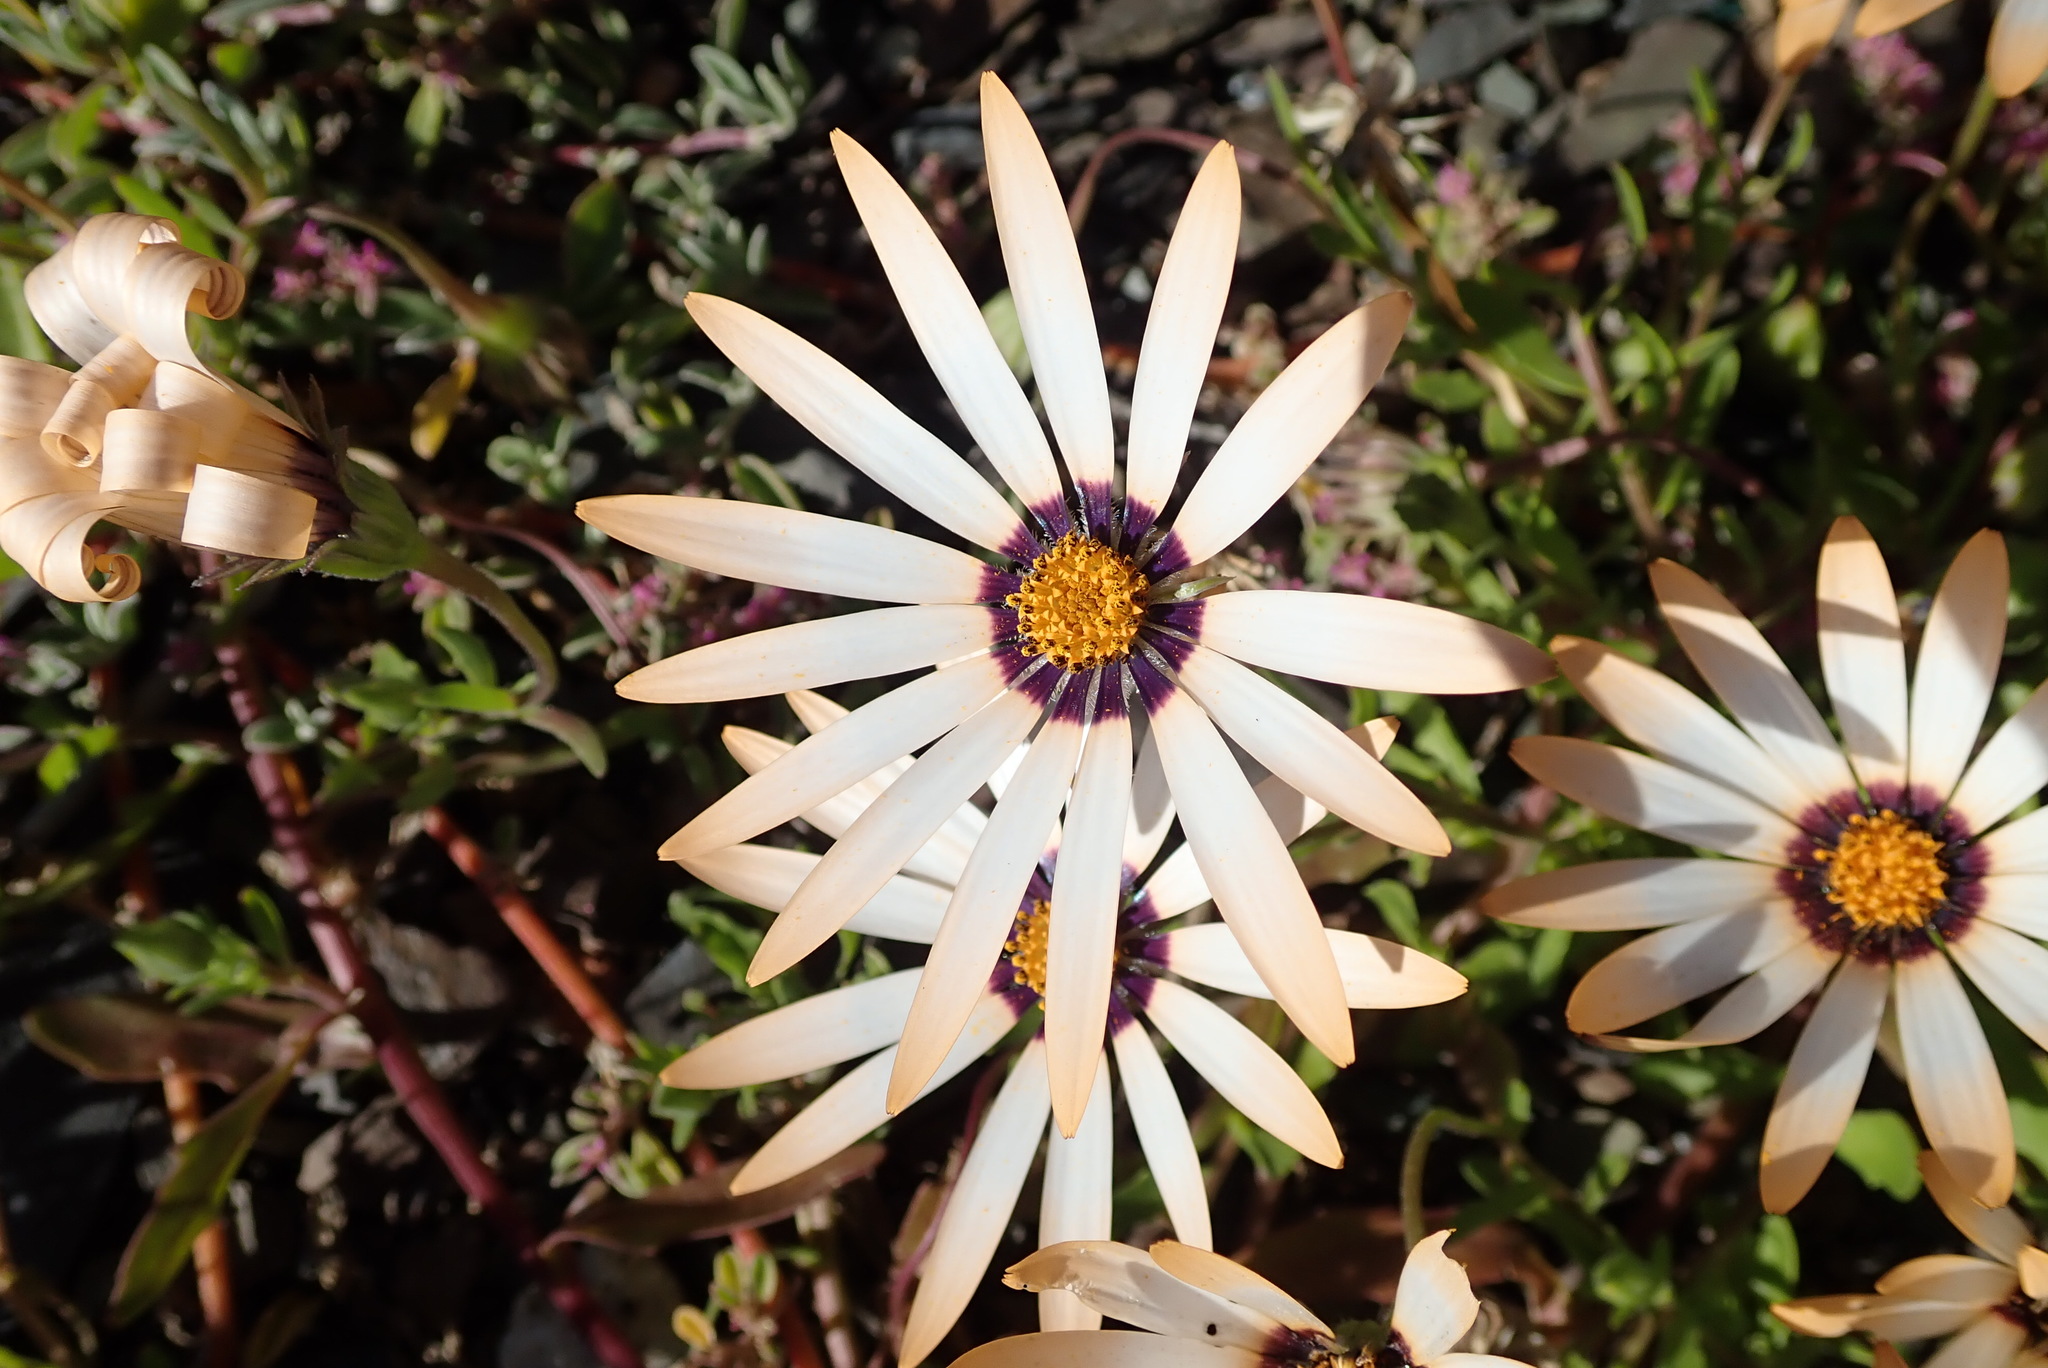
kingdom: Plantae
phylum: Tracheophyta
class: Magnoliopsida
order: Asterales
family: Asteraceae
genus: Dimorphotheca
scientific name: Dimorphotheca sinuata
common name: Glandular cape marigold
